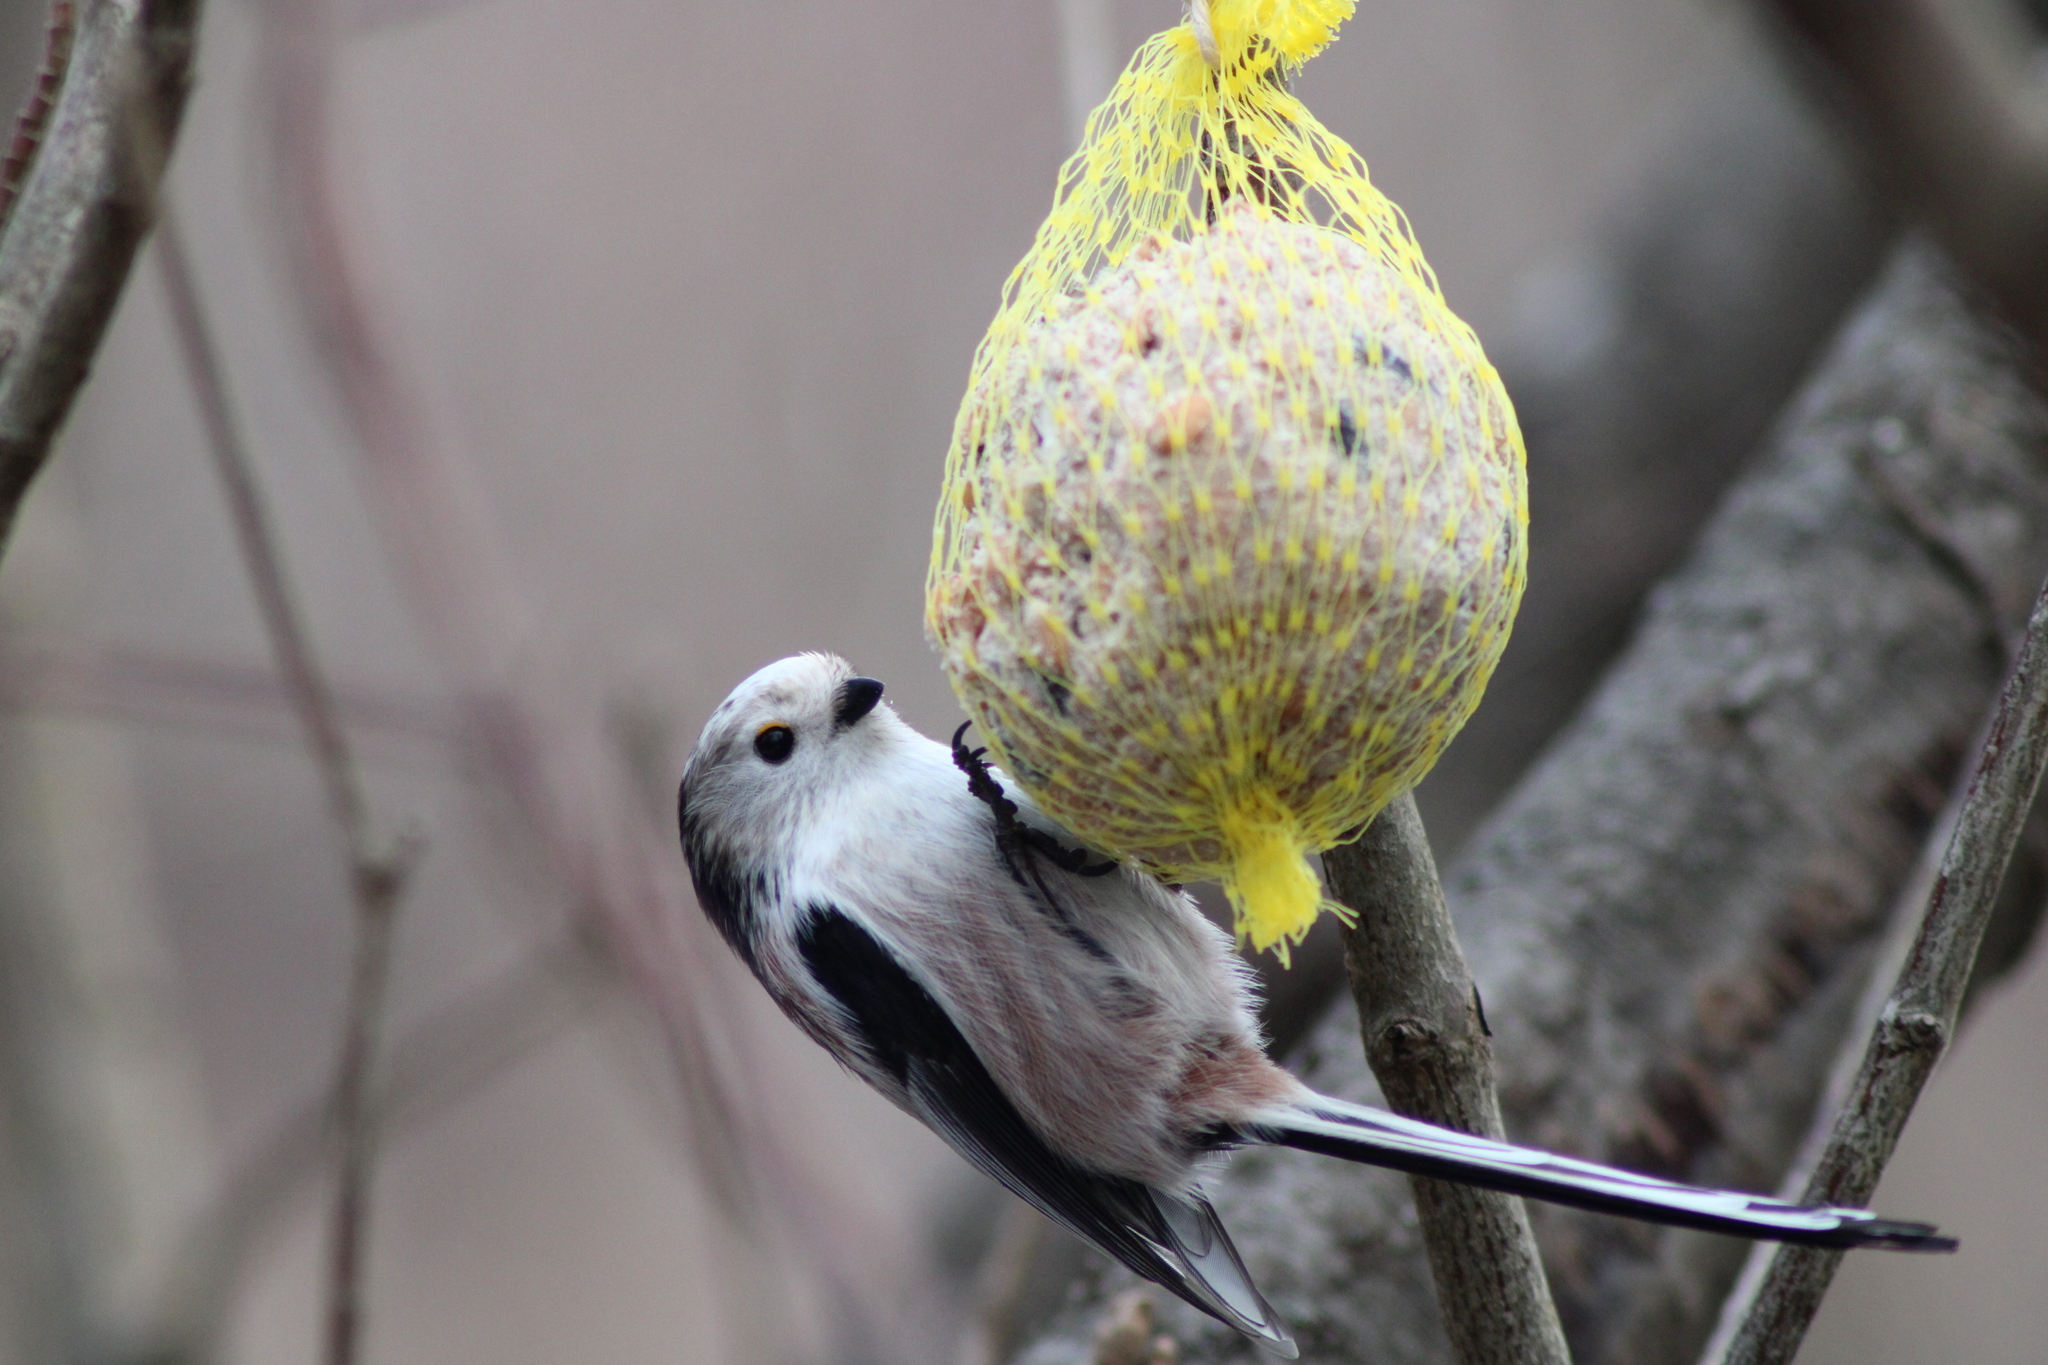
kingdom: Animalia
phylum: Chordata
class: Aves
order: Passeriformes
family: Aegithalidae
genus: Aegithalos
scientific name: Aegithalos caudatus
